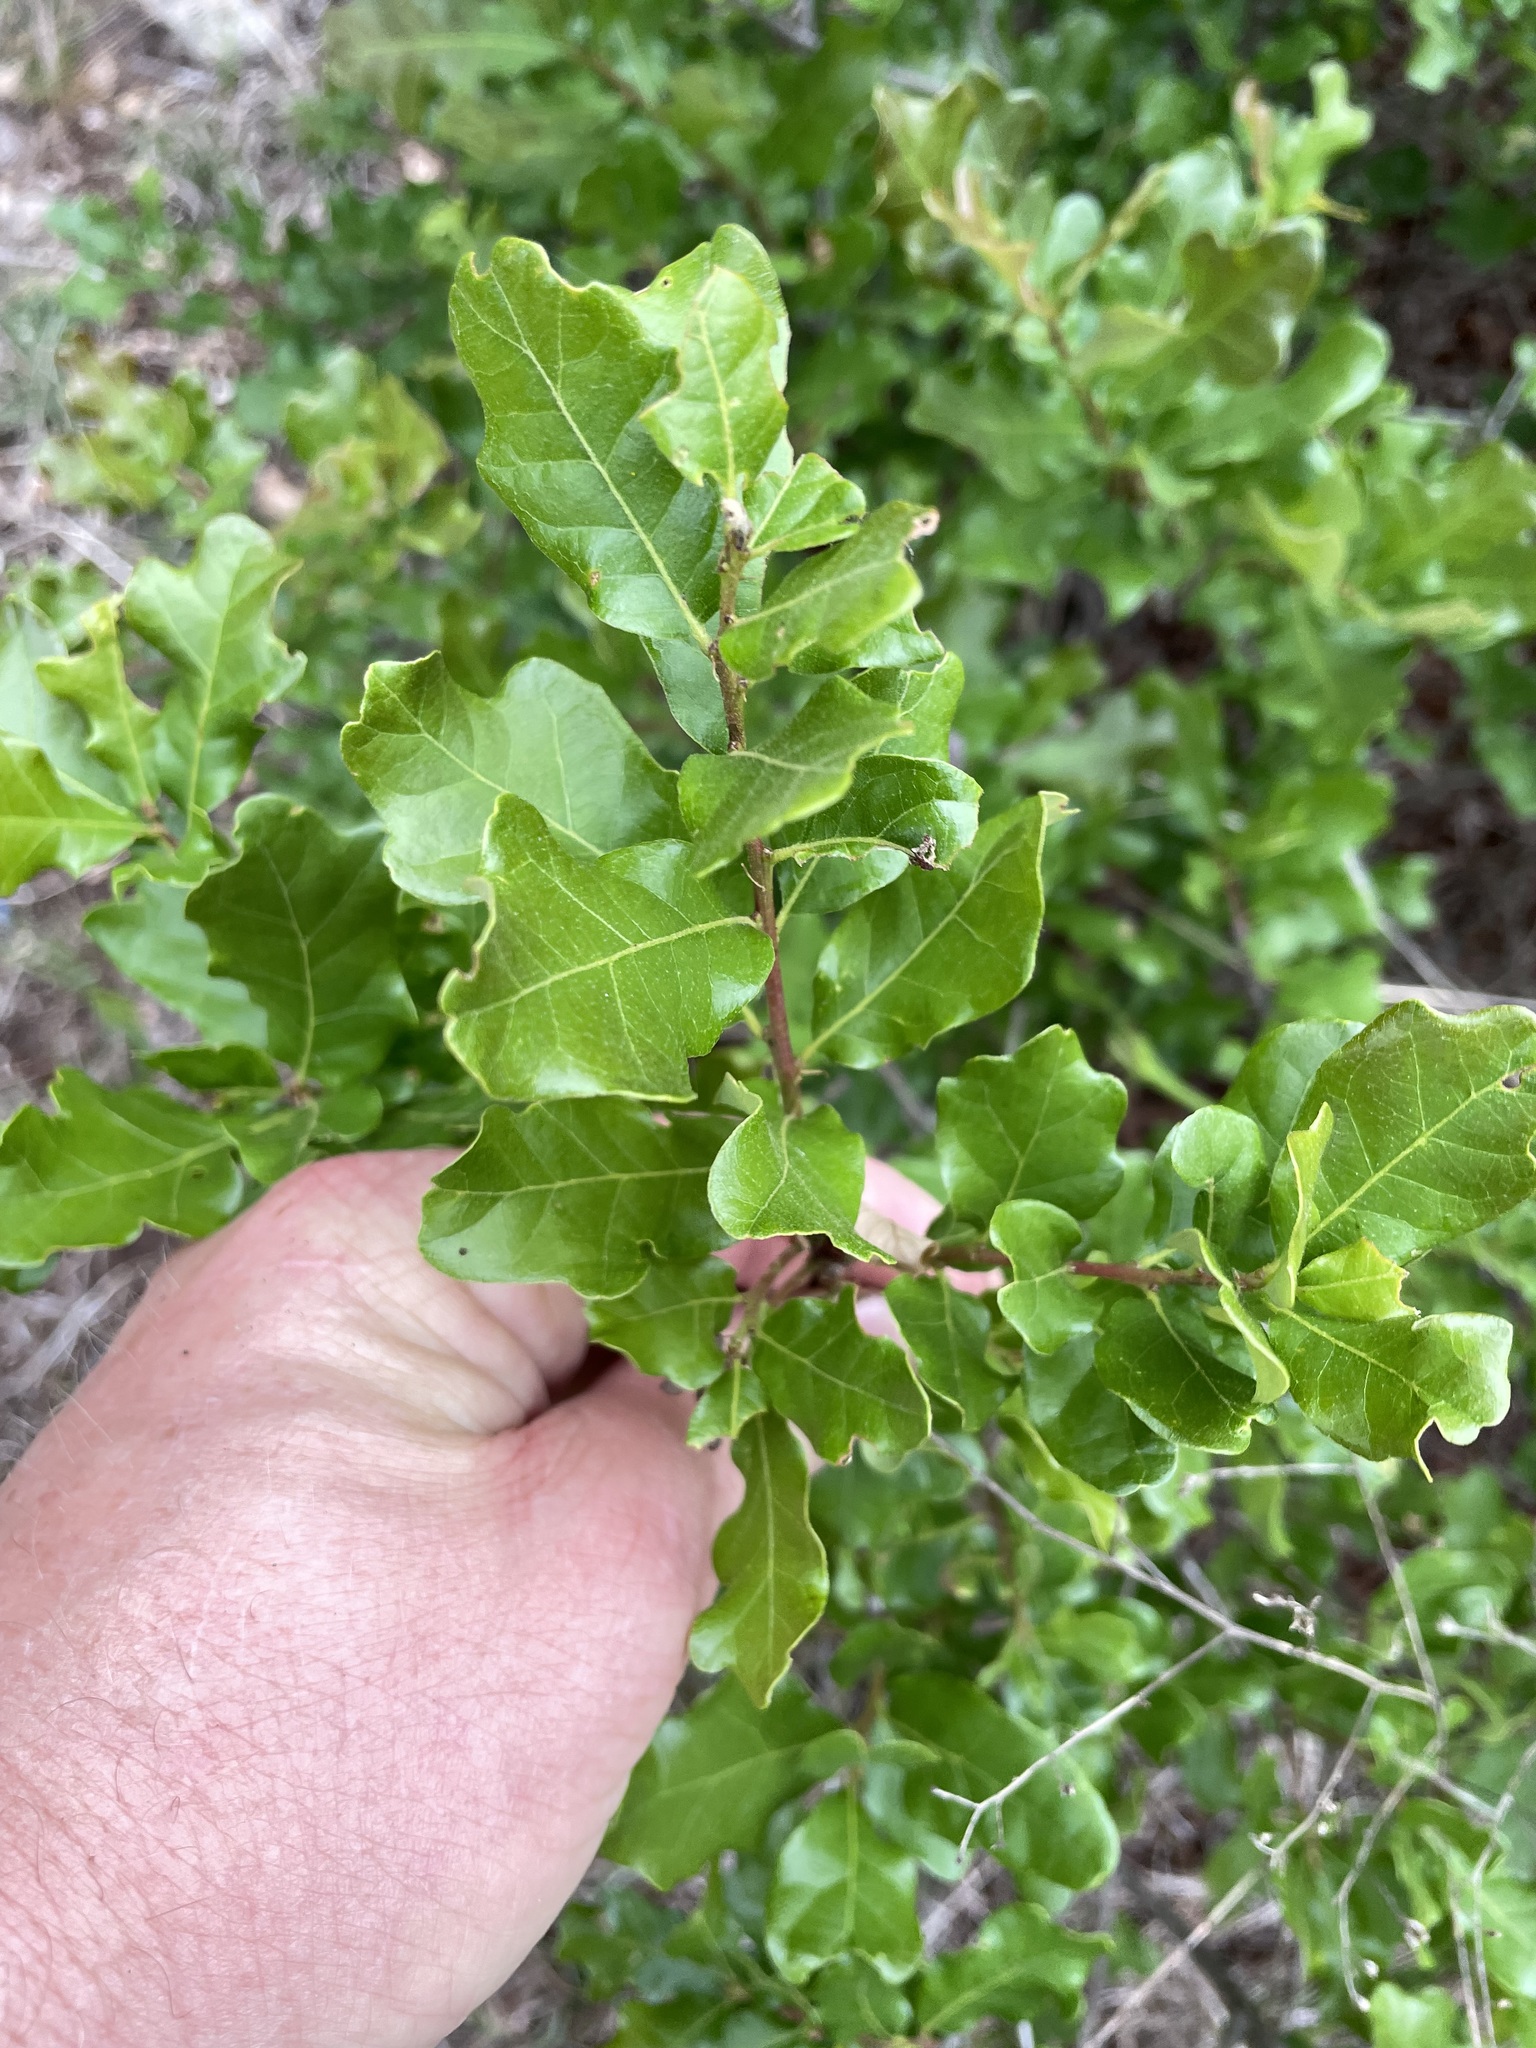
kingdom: Plantae
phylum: Tracheophyta
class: Magnoliopsida
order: Fagales
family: Fagaceae
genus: Quercus
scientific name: Quercus sinuata
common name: Durand oak
